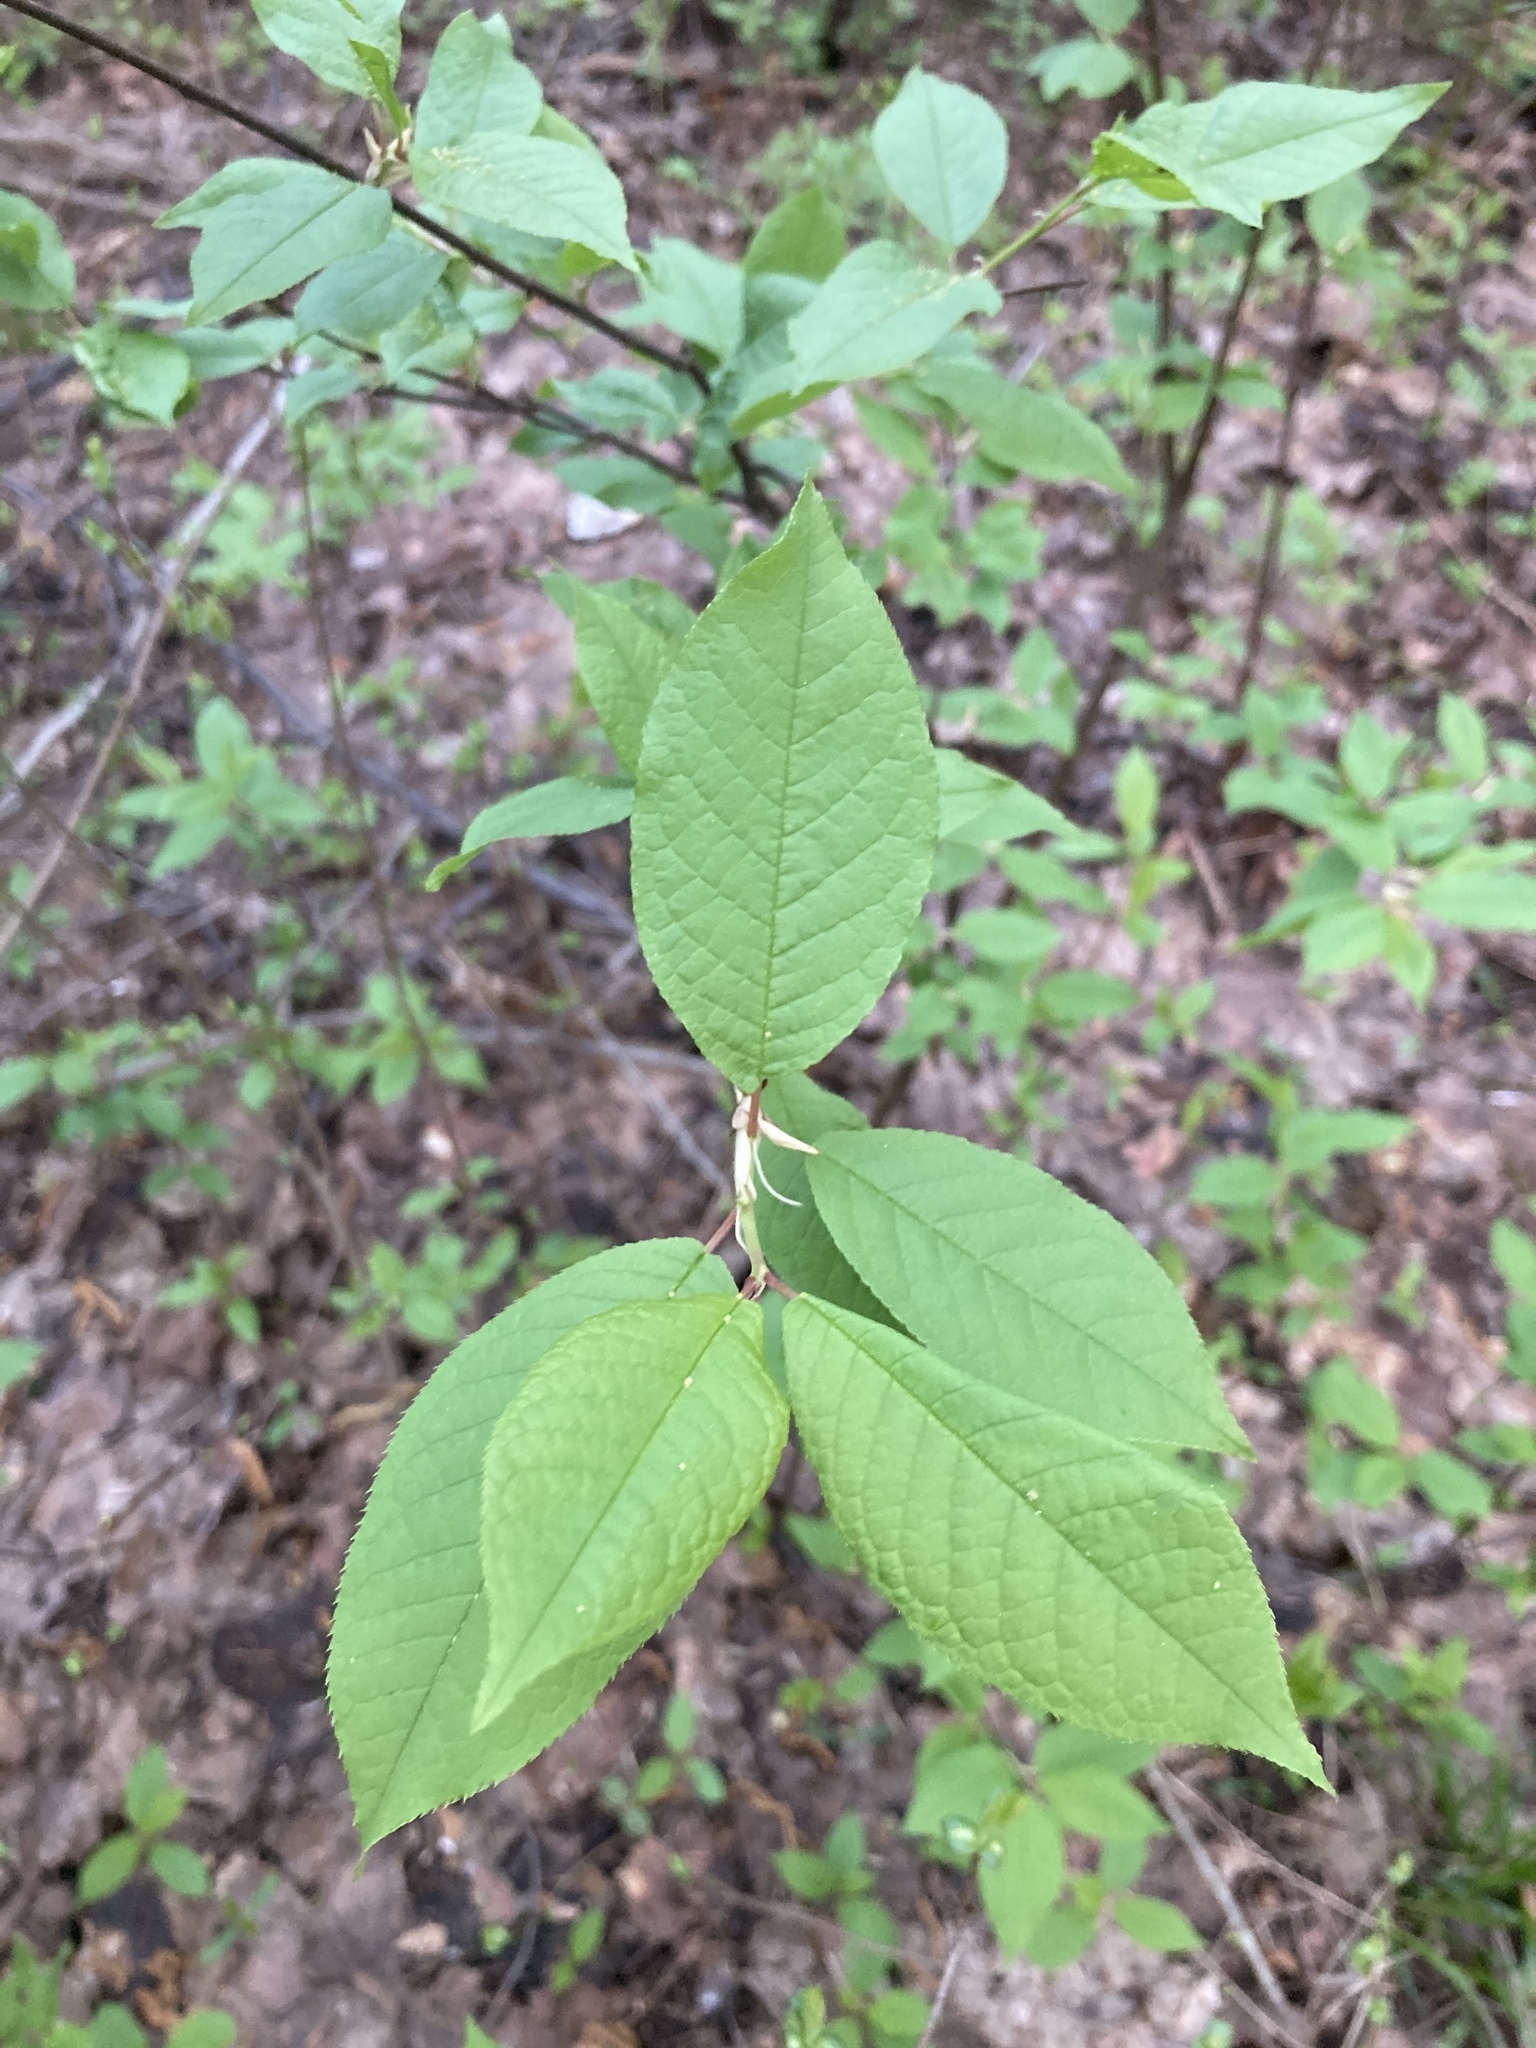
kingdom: Plantae
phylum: Tracheophyta
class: Magnoliopsida
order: Rosales
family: Rosaceae
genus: Prunus
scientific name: Prunus padus
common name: Bird cherry
